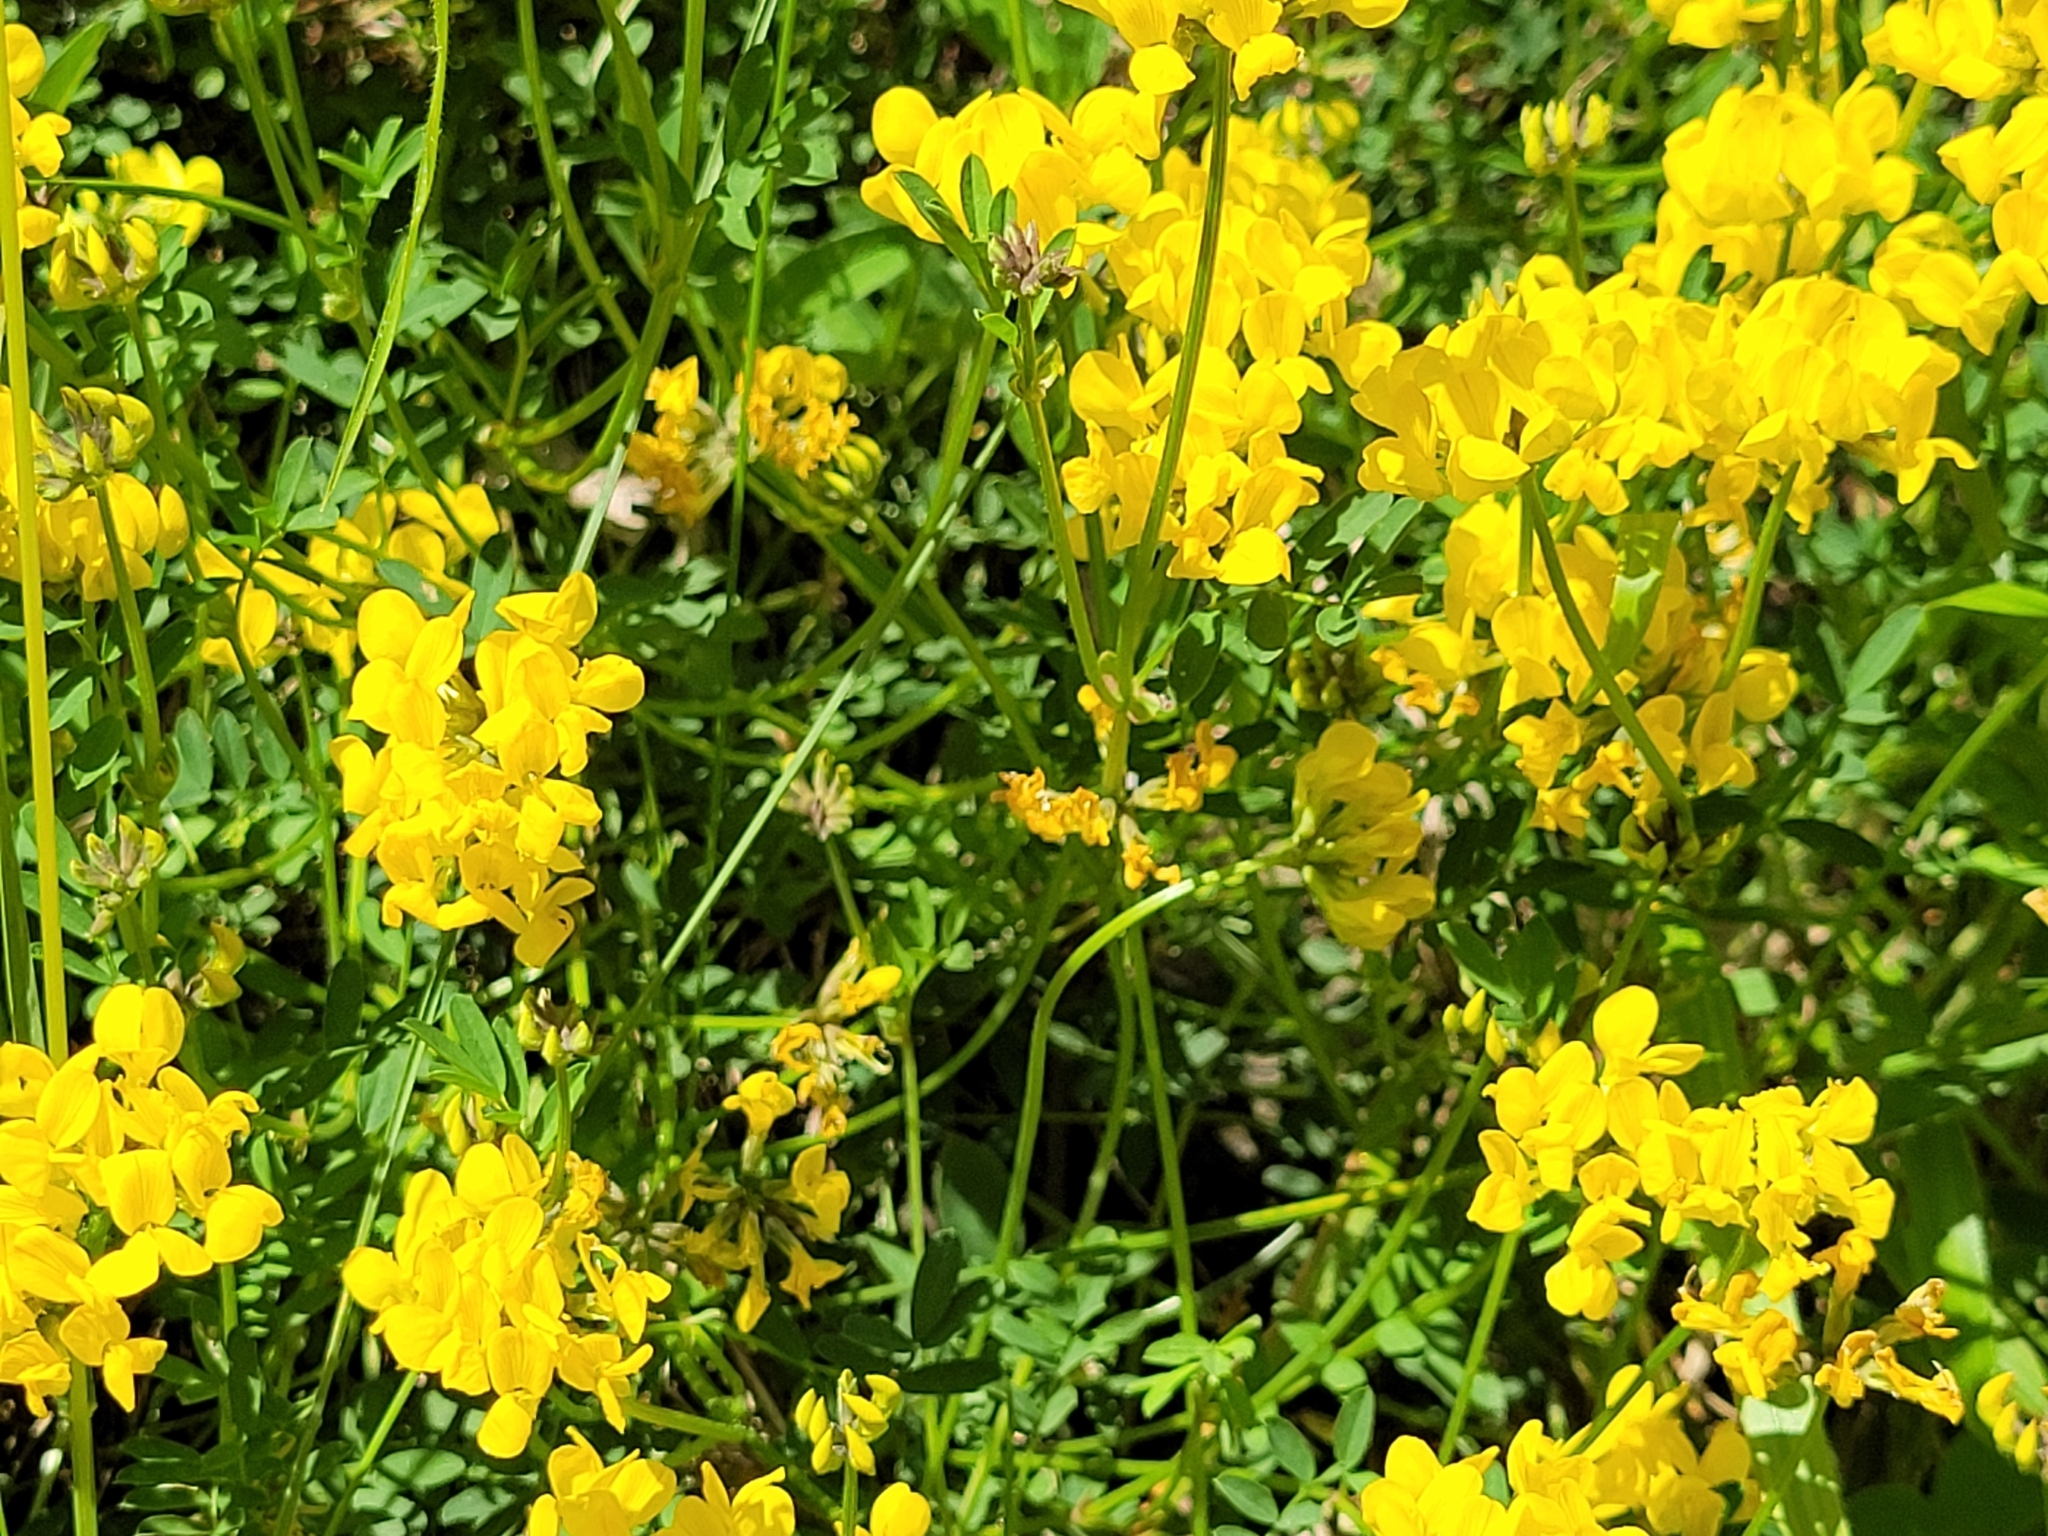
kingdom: Plantae
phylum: Tracheophyta
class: Magnoliopsida
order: Fabales
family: Fabaceae
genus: Hippocrepis
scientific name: Hippocrepis comosa
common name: Horseshoe vetch
